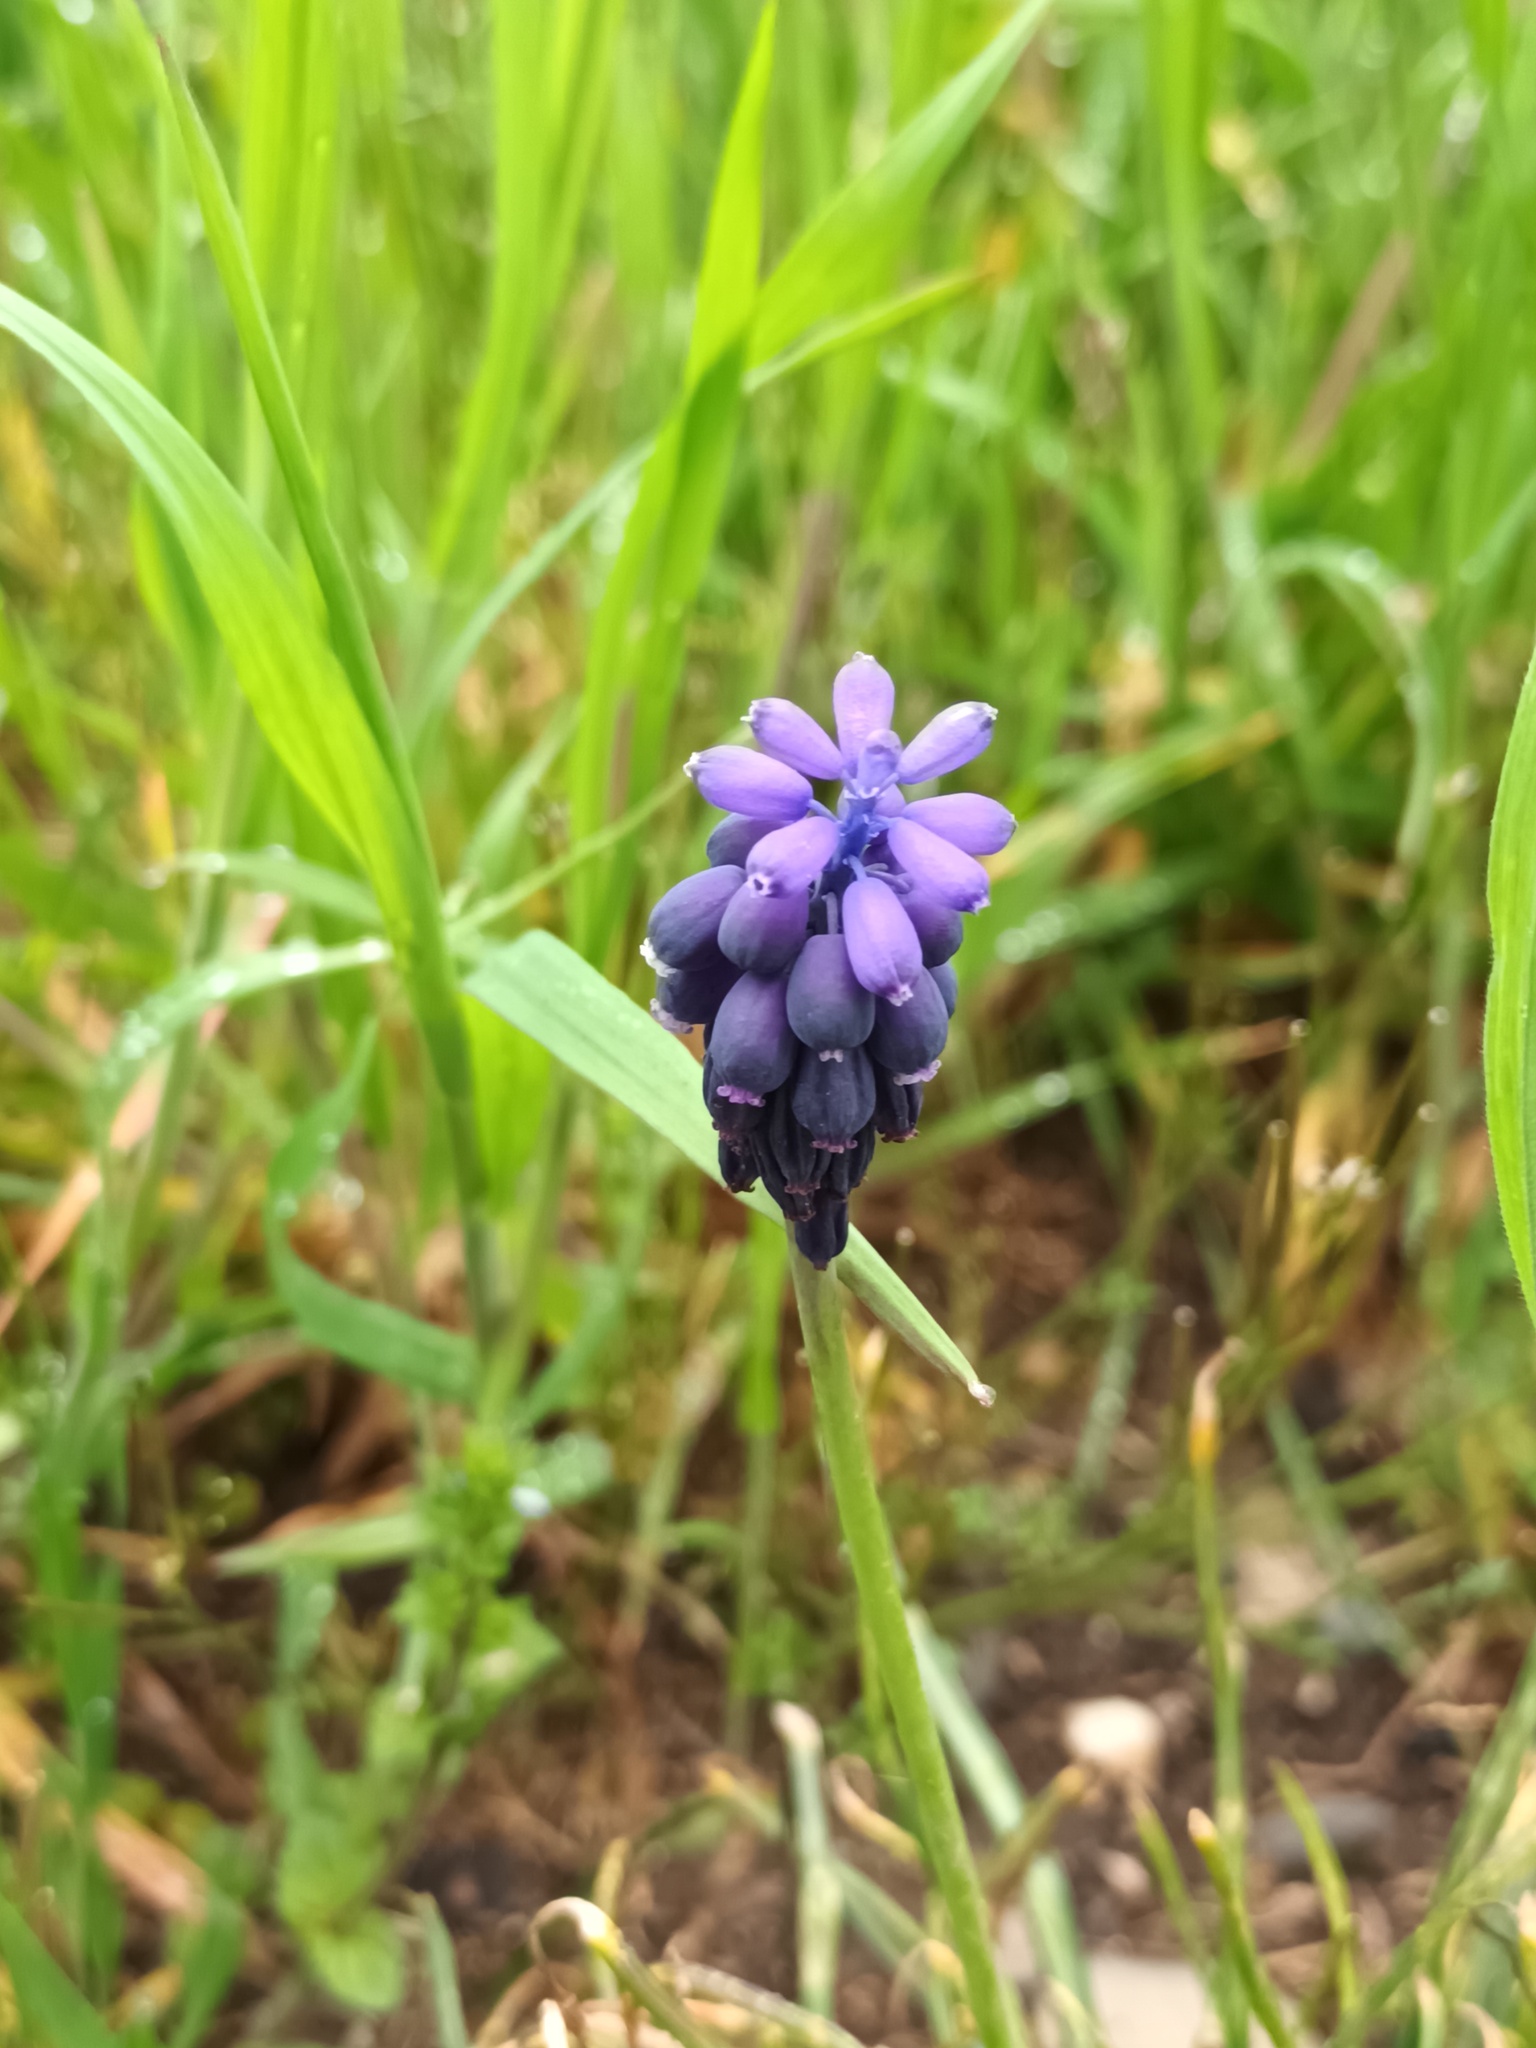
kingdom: Plantae
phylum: Tracheophyta
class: Liliopsida
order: Asparagales
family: Asparagaceae
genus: Muscari
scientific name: Muscari neglectum
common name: Grape-hyacinth
